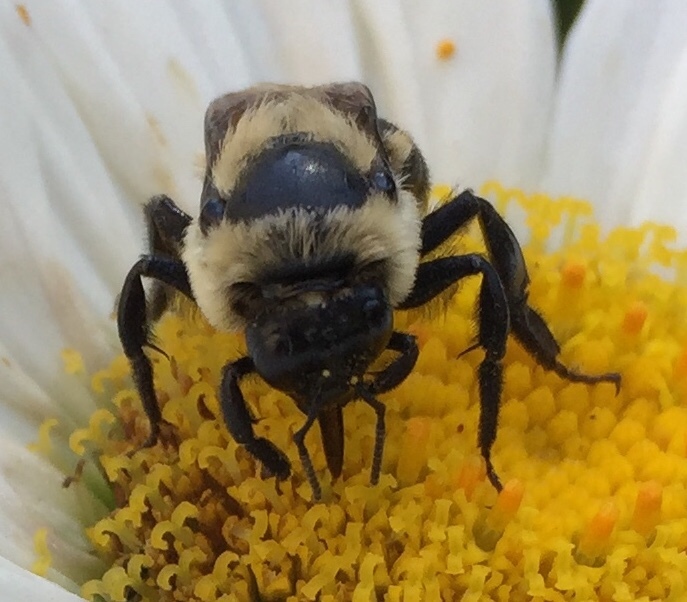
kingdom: Animalia
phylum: Arthropoda
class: Insecta
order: Hymenoptera
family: Apidae
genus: Bombus
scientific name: Bombus griseocollis
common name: Brown-belted bumble bee
